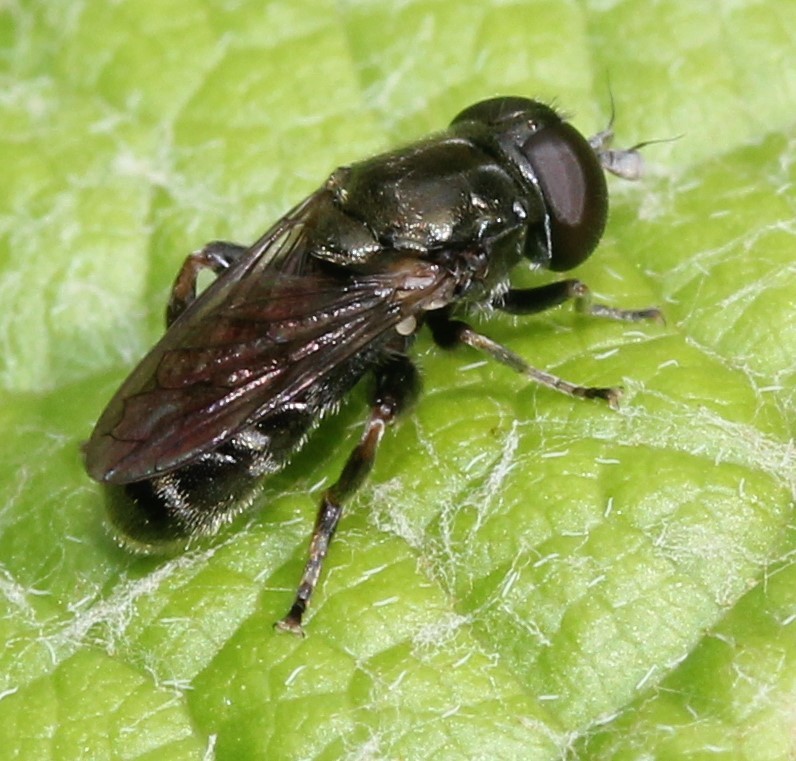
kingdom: Animalia
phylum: Arthropoda
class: Insecta
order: Diptera
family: Syrphidae
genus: Eumerus
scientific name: Eumerus
